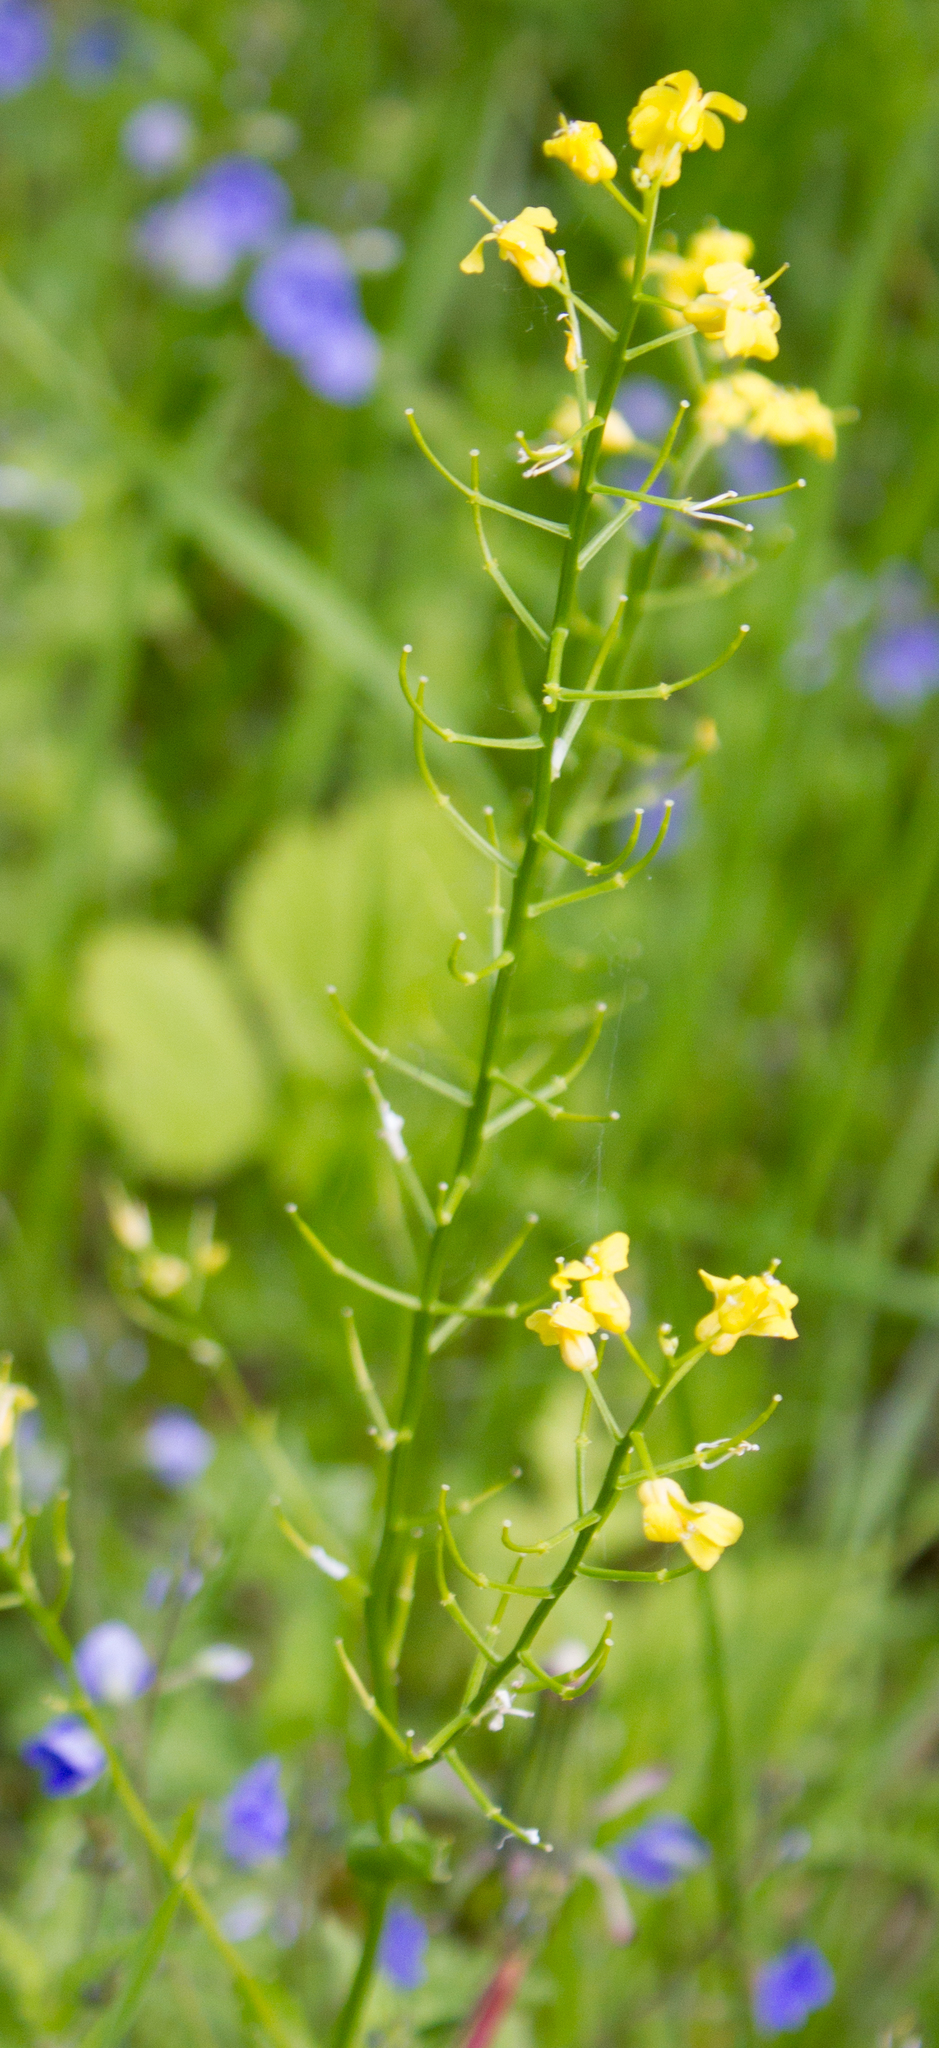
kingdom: Plantae
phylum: Tracheophyta
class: Magnoliopsida
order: Brassicales
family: Brassicaceae
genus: Barbarea
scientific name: Barbarea vulgaris
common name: Cressy-greens
